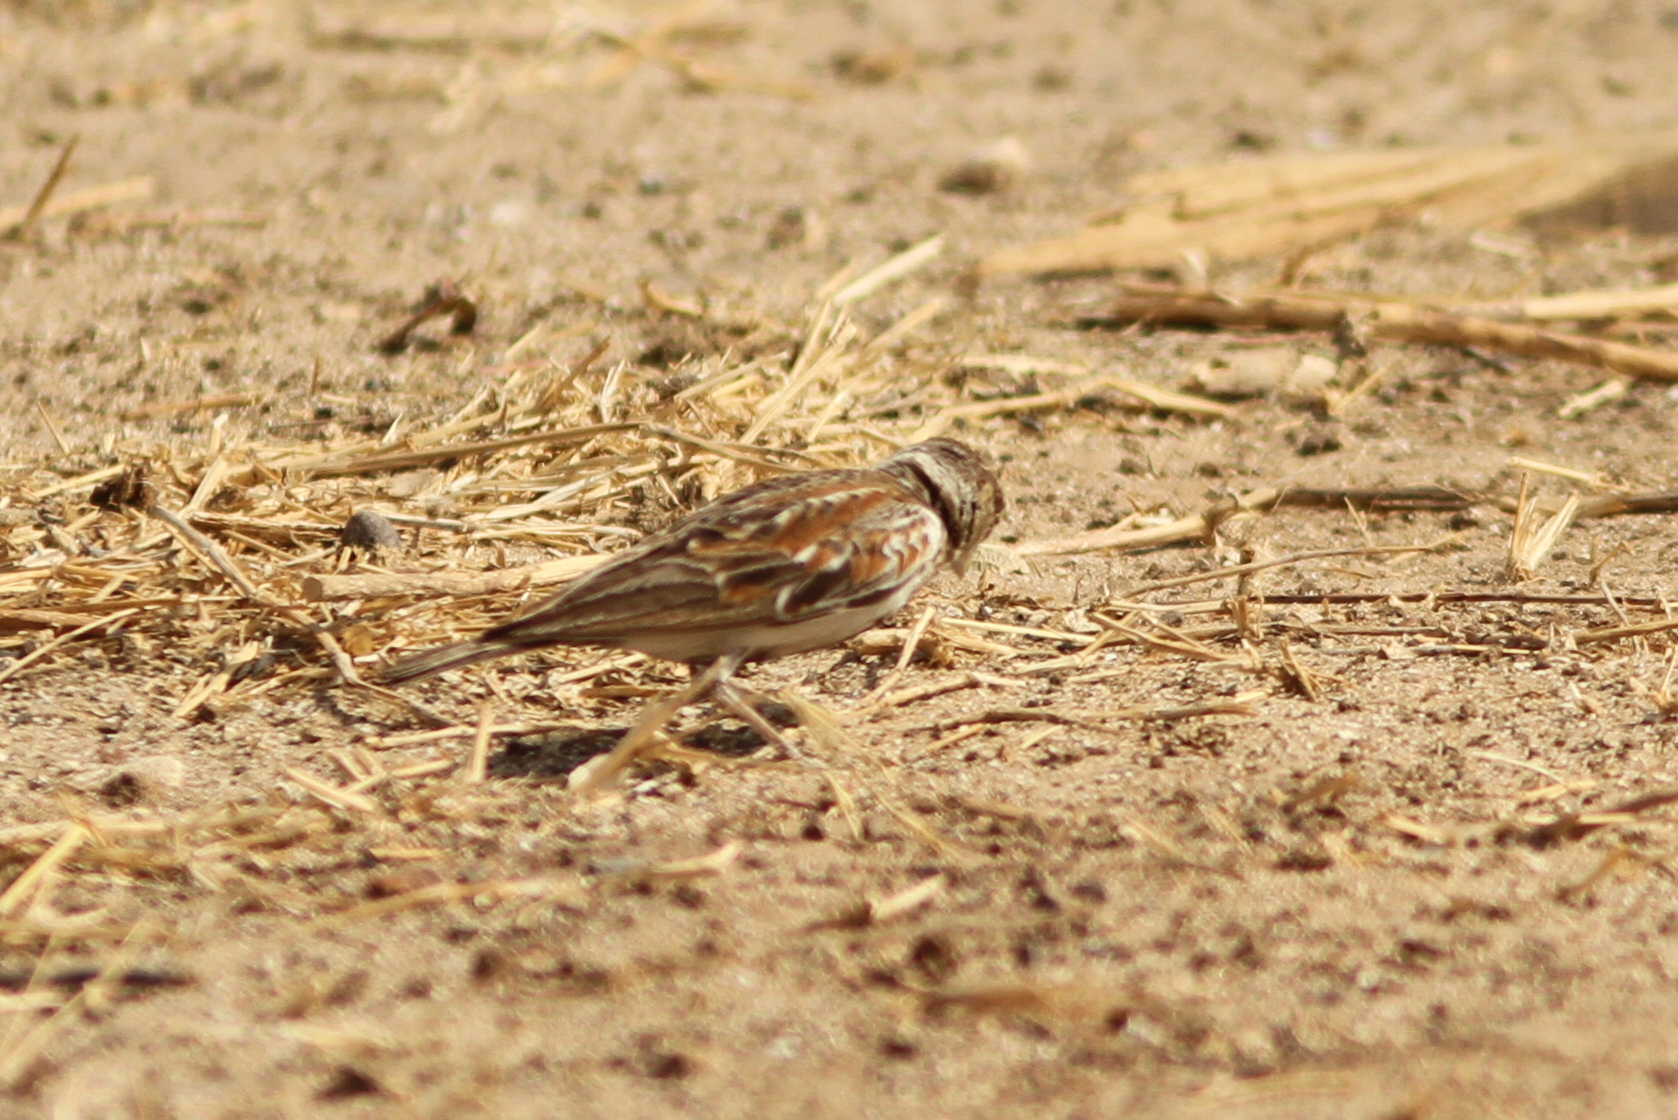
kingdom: Animalia
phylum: Chordata
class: Aves
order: Passeriformes
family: Alaudidae
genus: Eremopterix
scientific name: Eremopterix leucotis
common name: Chestnut-backed sparrow-lark
